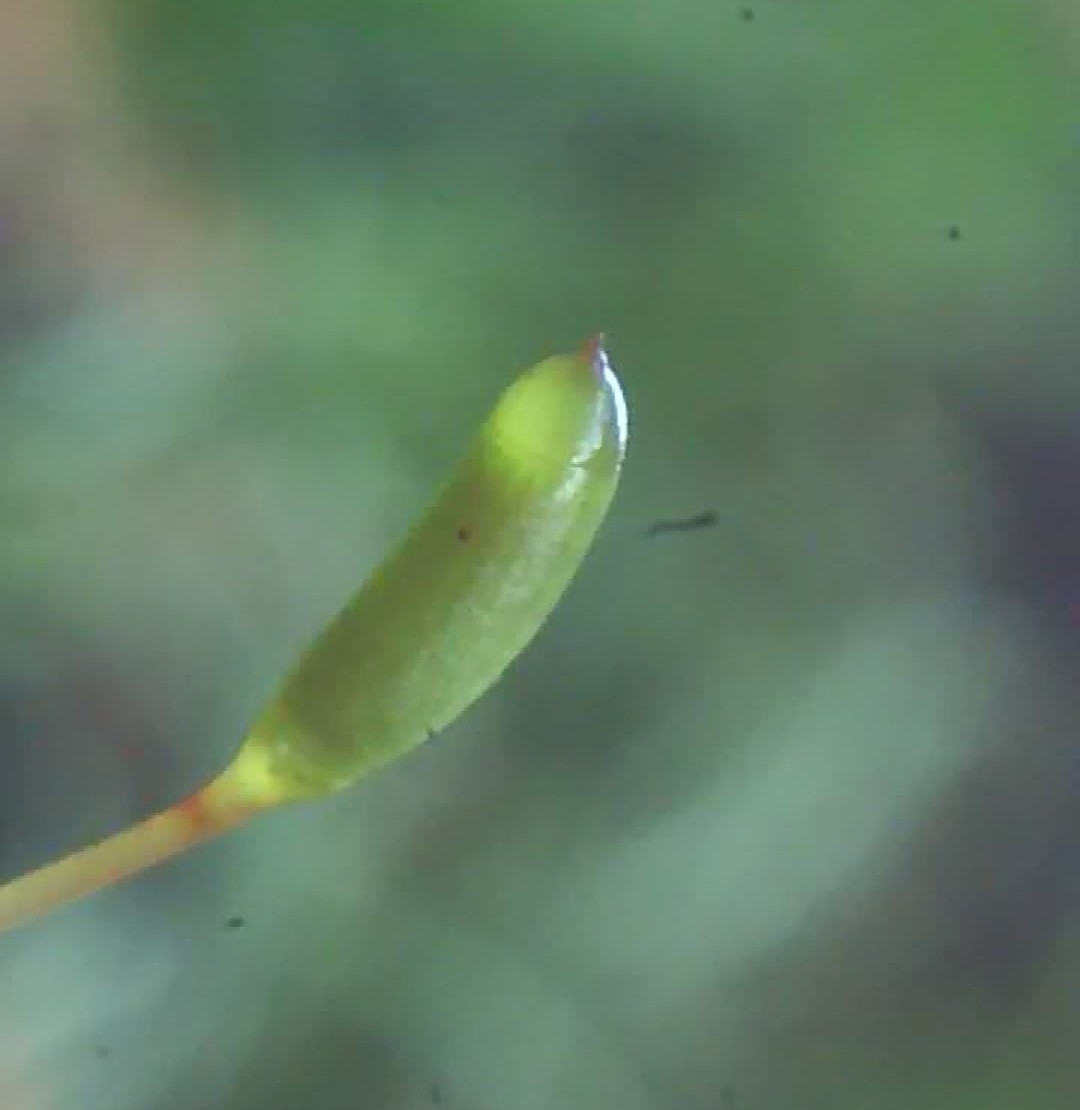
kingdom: Plantae
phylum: Bryophyta
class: Bryopsida
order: Hypnales
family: Hypnaceae
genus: Hypnum
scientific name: Hypnum andoi
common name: Ando's plait moss
